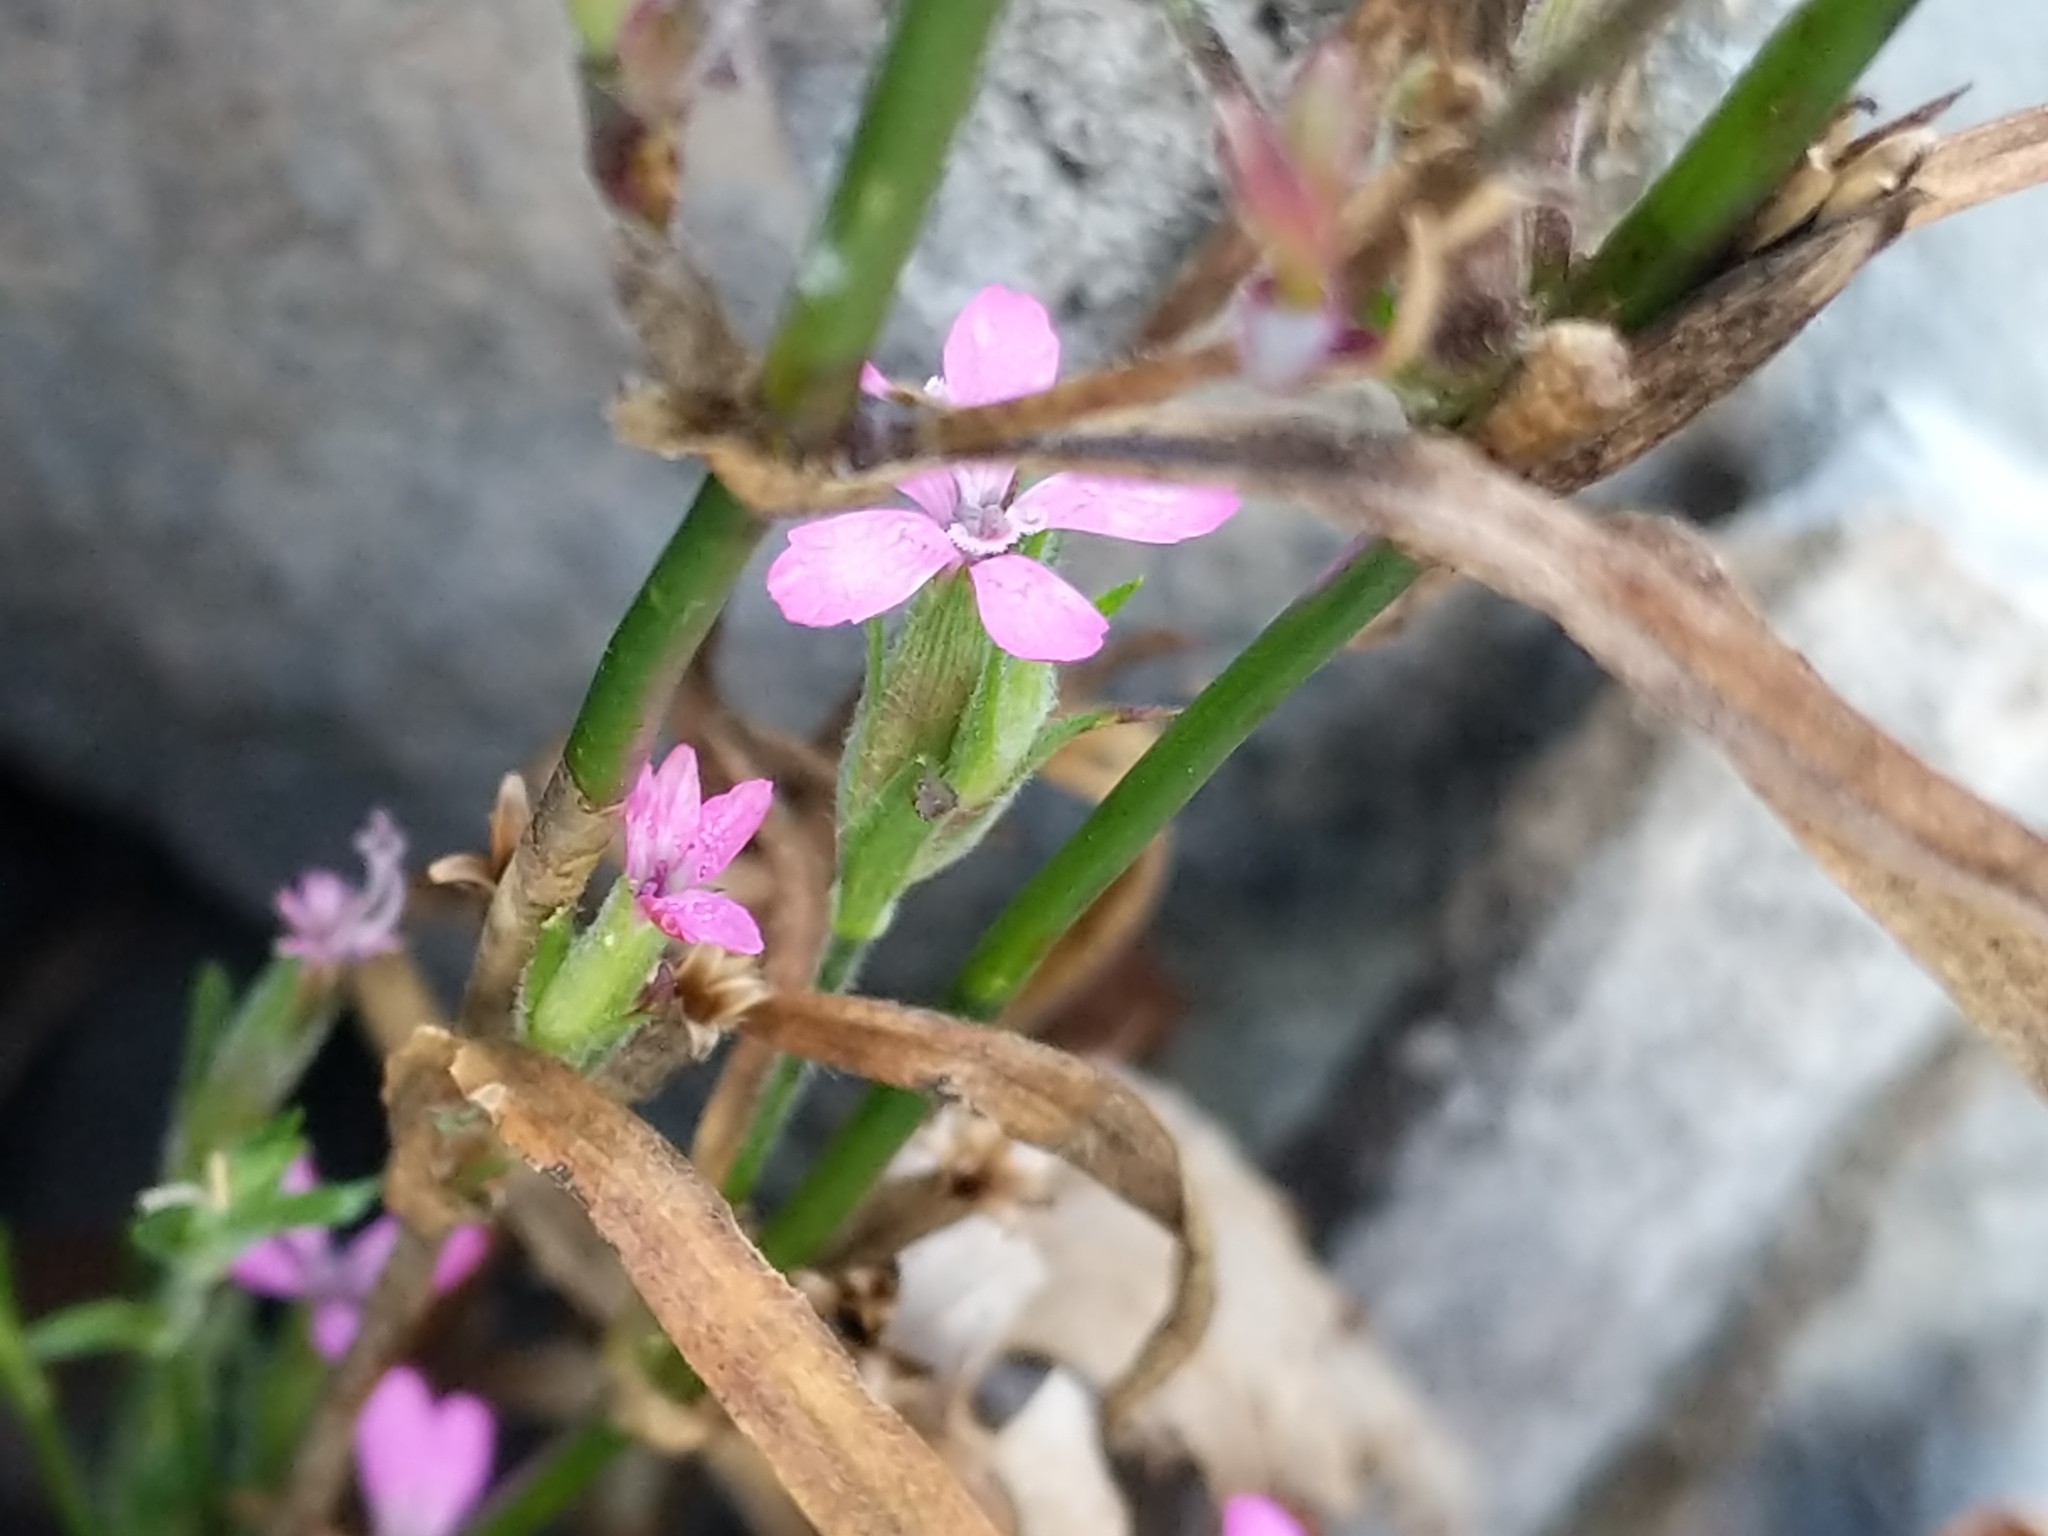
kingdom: Plantae
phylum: Tracheophyta
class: Magnoliopsida
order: Caryophyllales
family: Caryophyllaceae
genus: Dianthus
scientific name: Dianthus armeria
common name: Deptford pink
